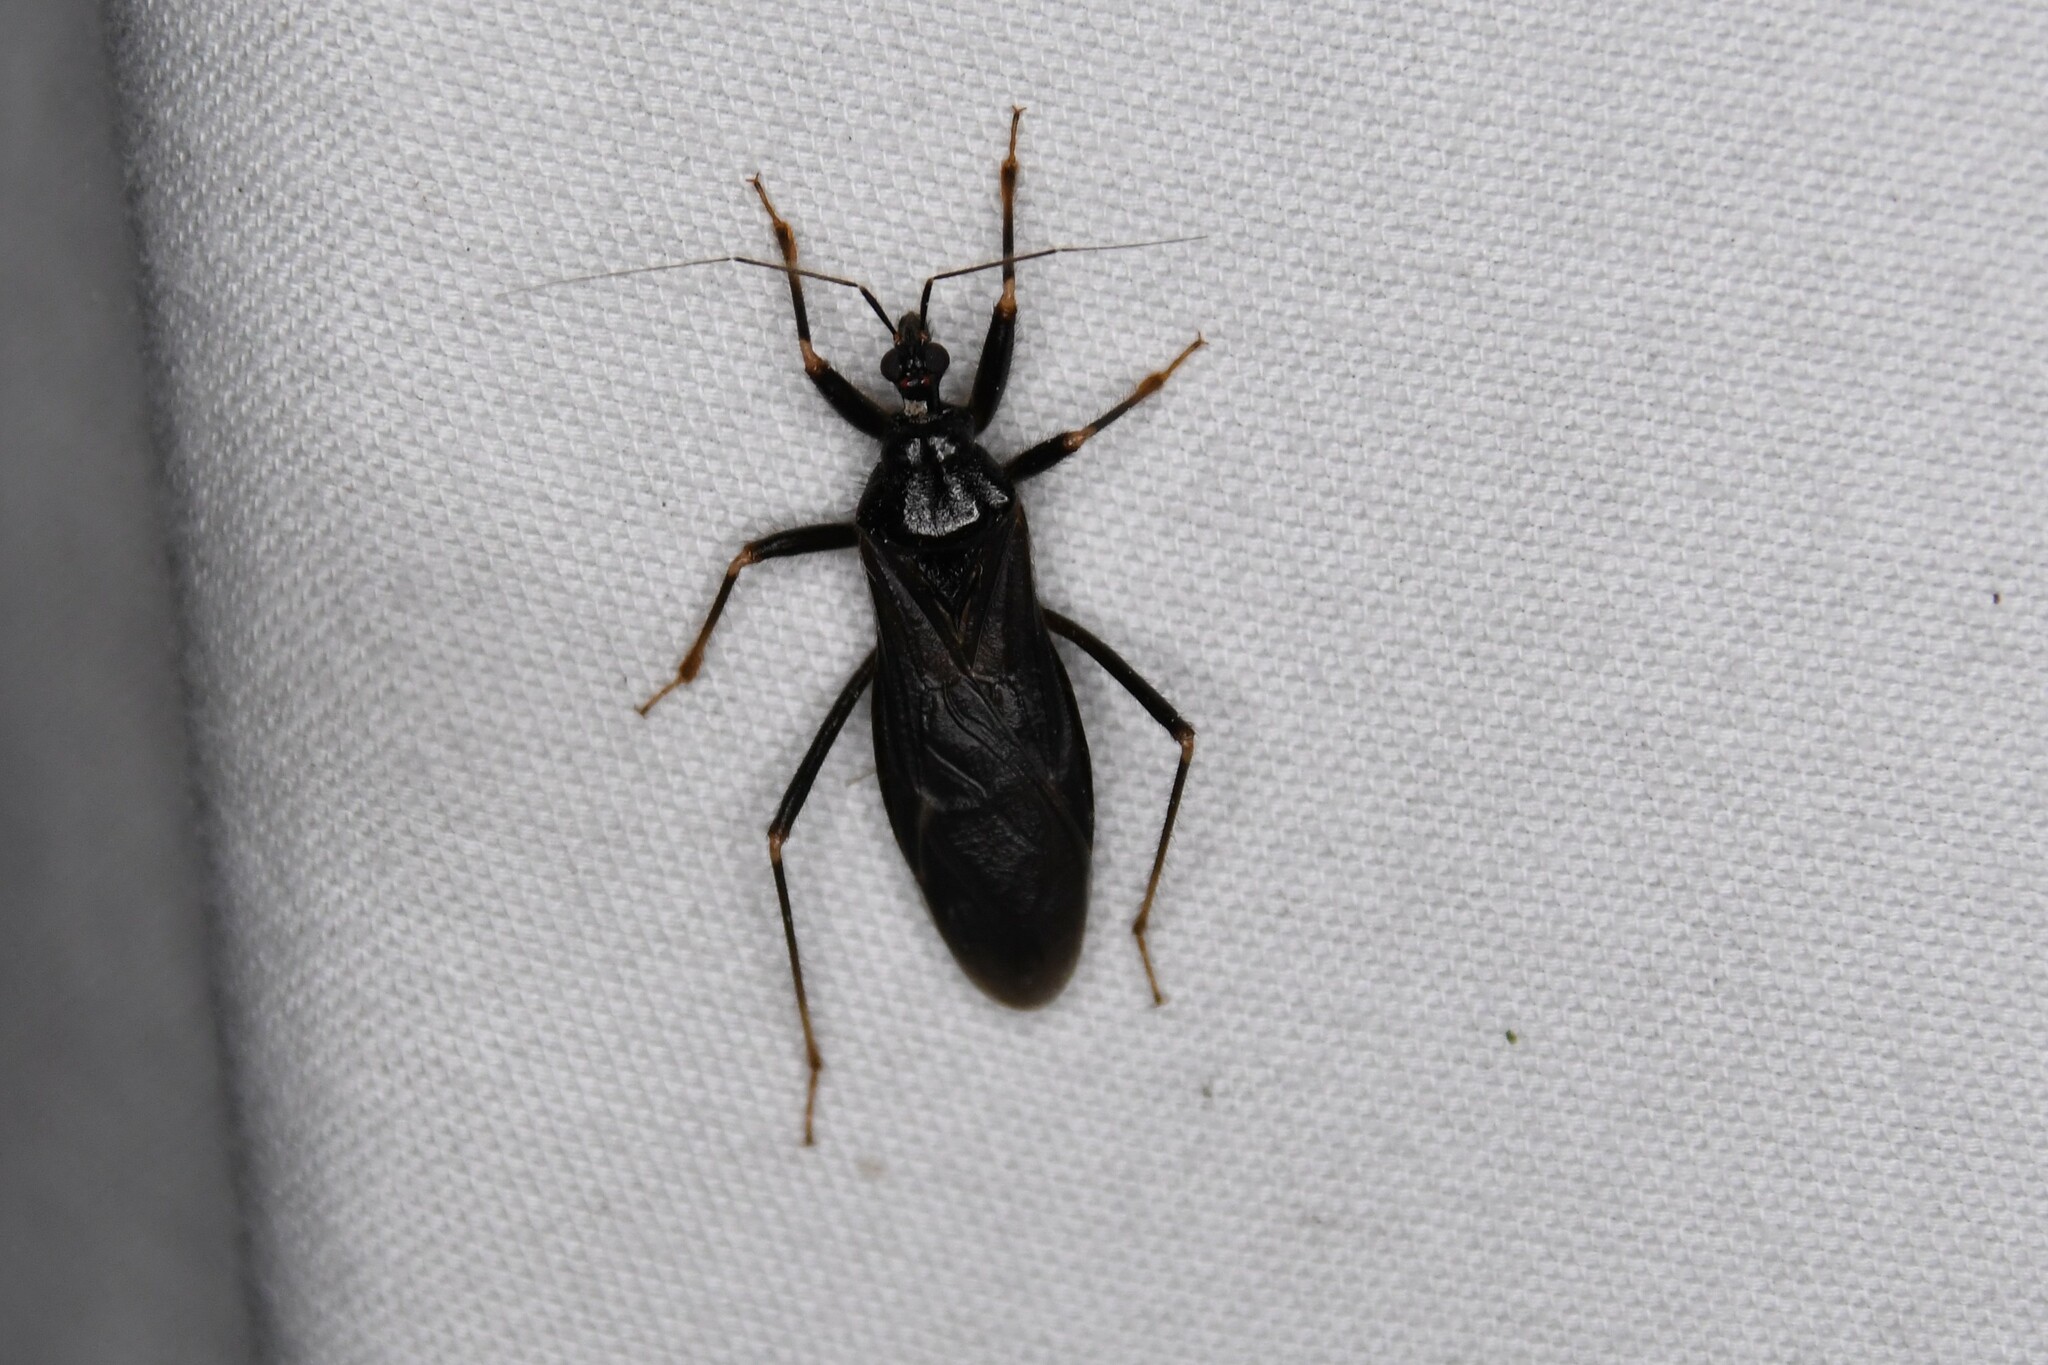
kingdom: Animalia
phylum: Arthropoda
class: Insecta
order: Hemiptera
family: Reduviidae
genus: Reduvius
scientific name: Reduvius personatus
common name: Masked hunter
